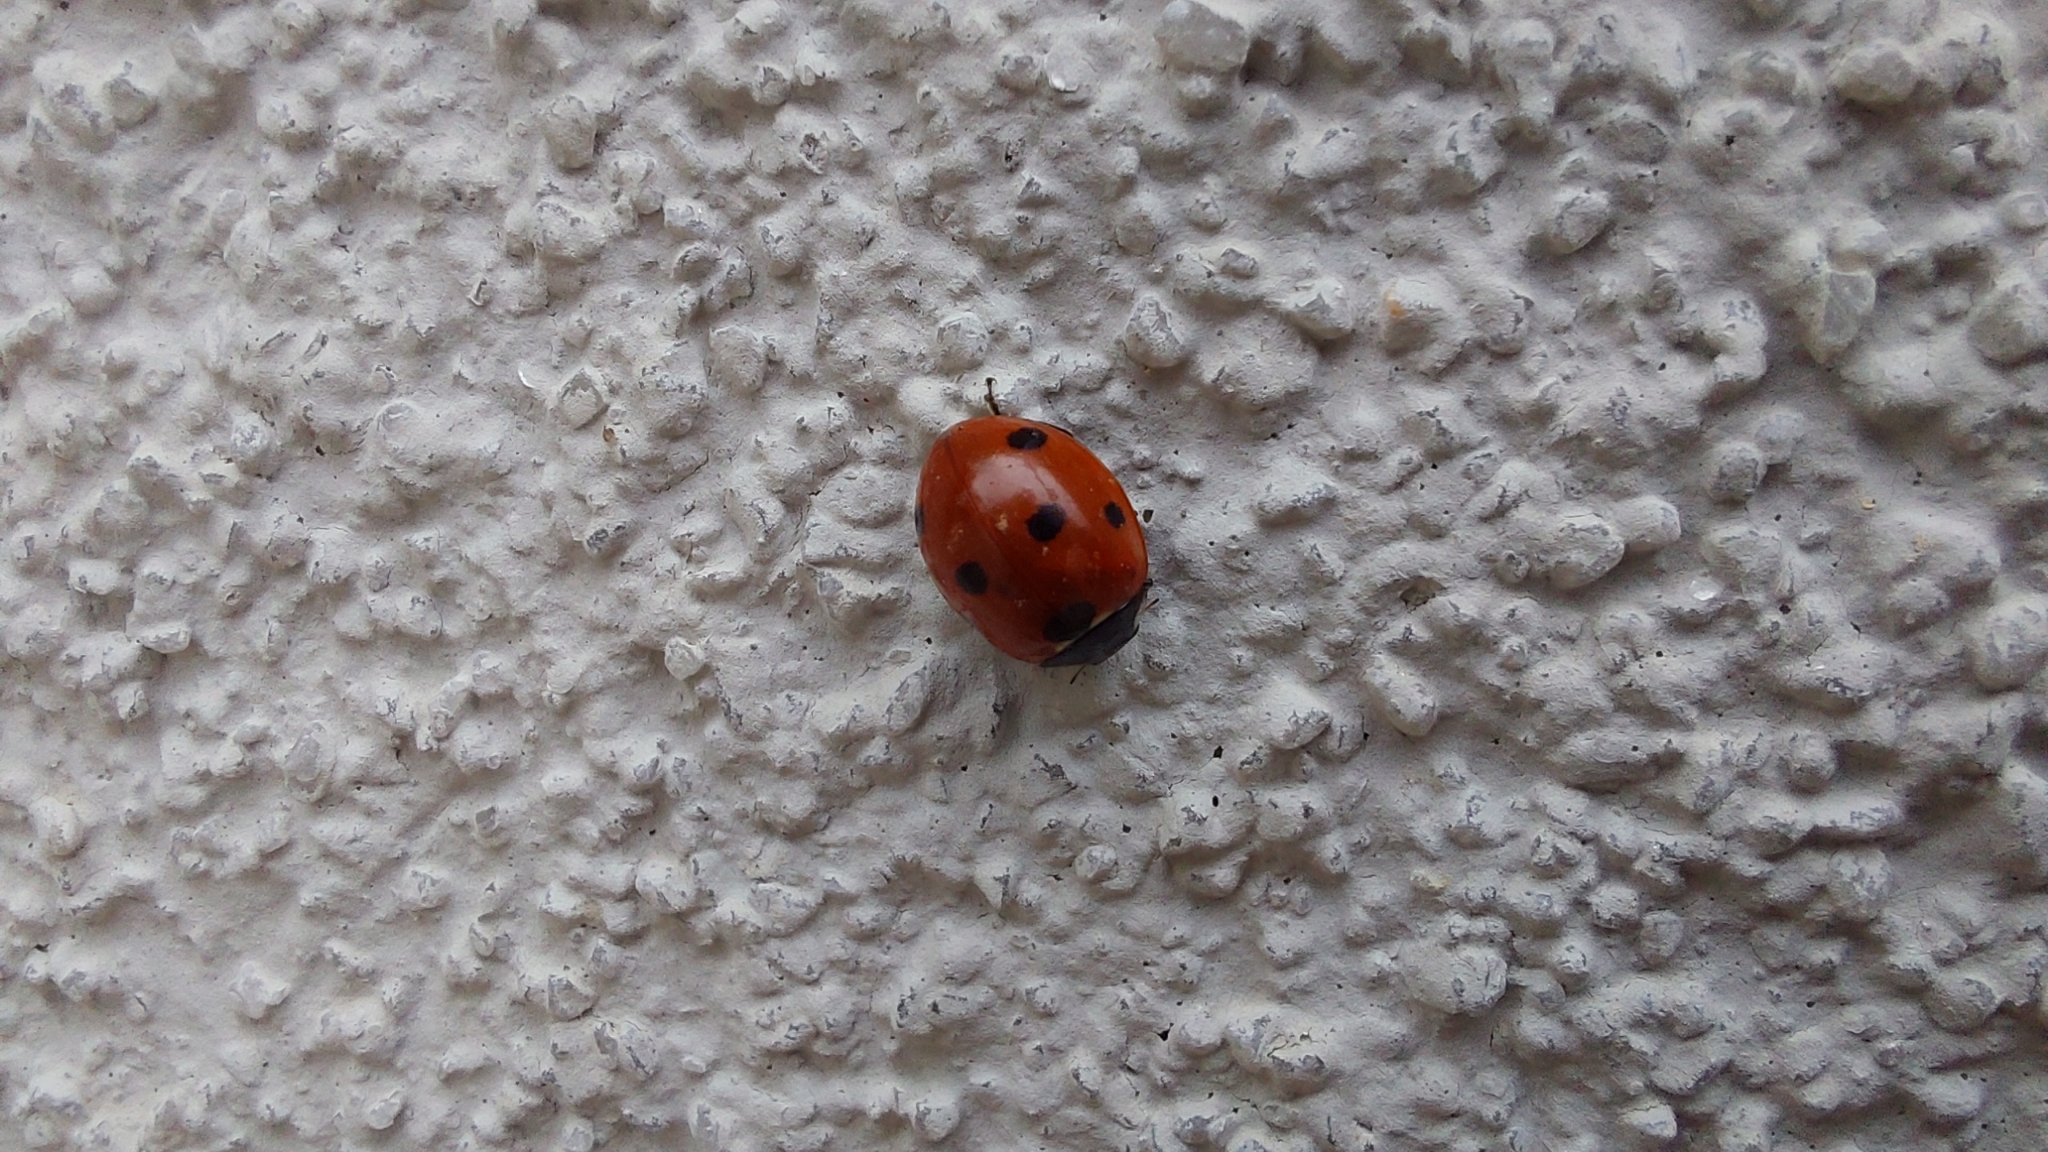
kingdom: Animalia
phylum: Arthropoda
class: Insecta
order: Coleoptera
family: Coccinellidae
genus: Coccinella
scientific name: Coccinella septempunctata
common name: Sevenspotted lady beetle
